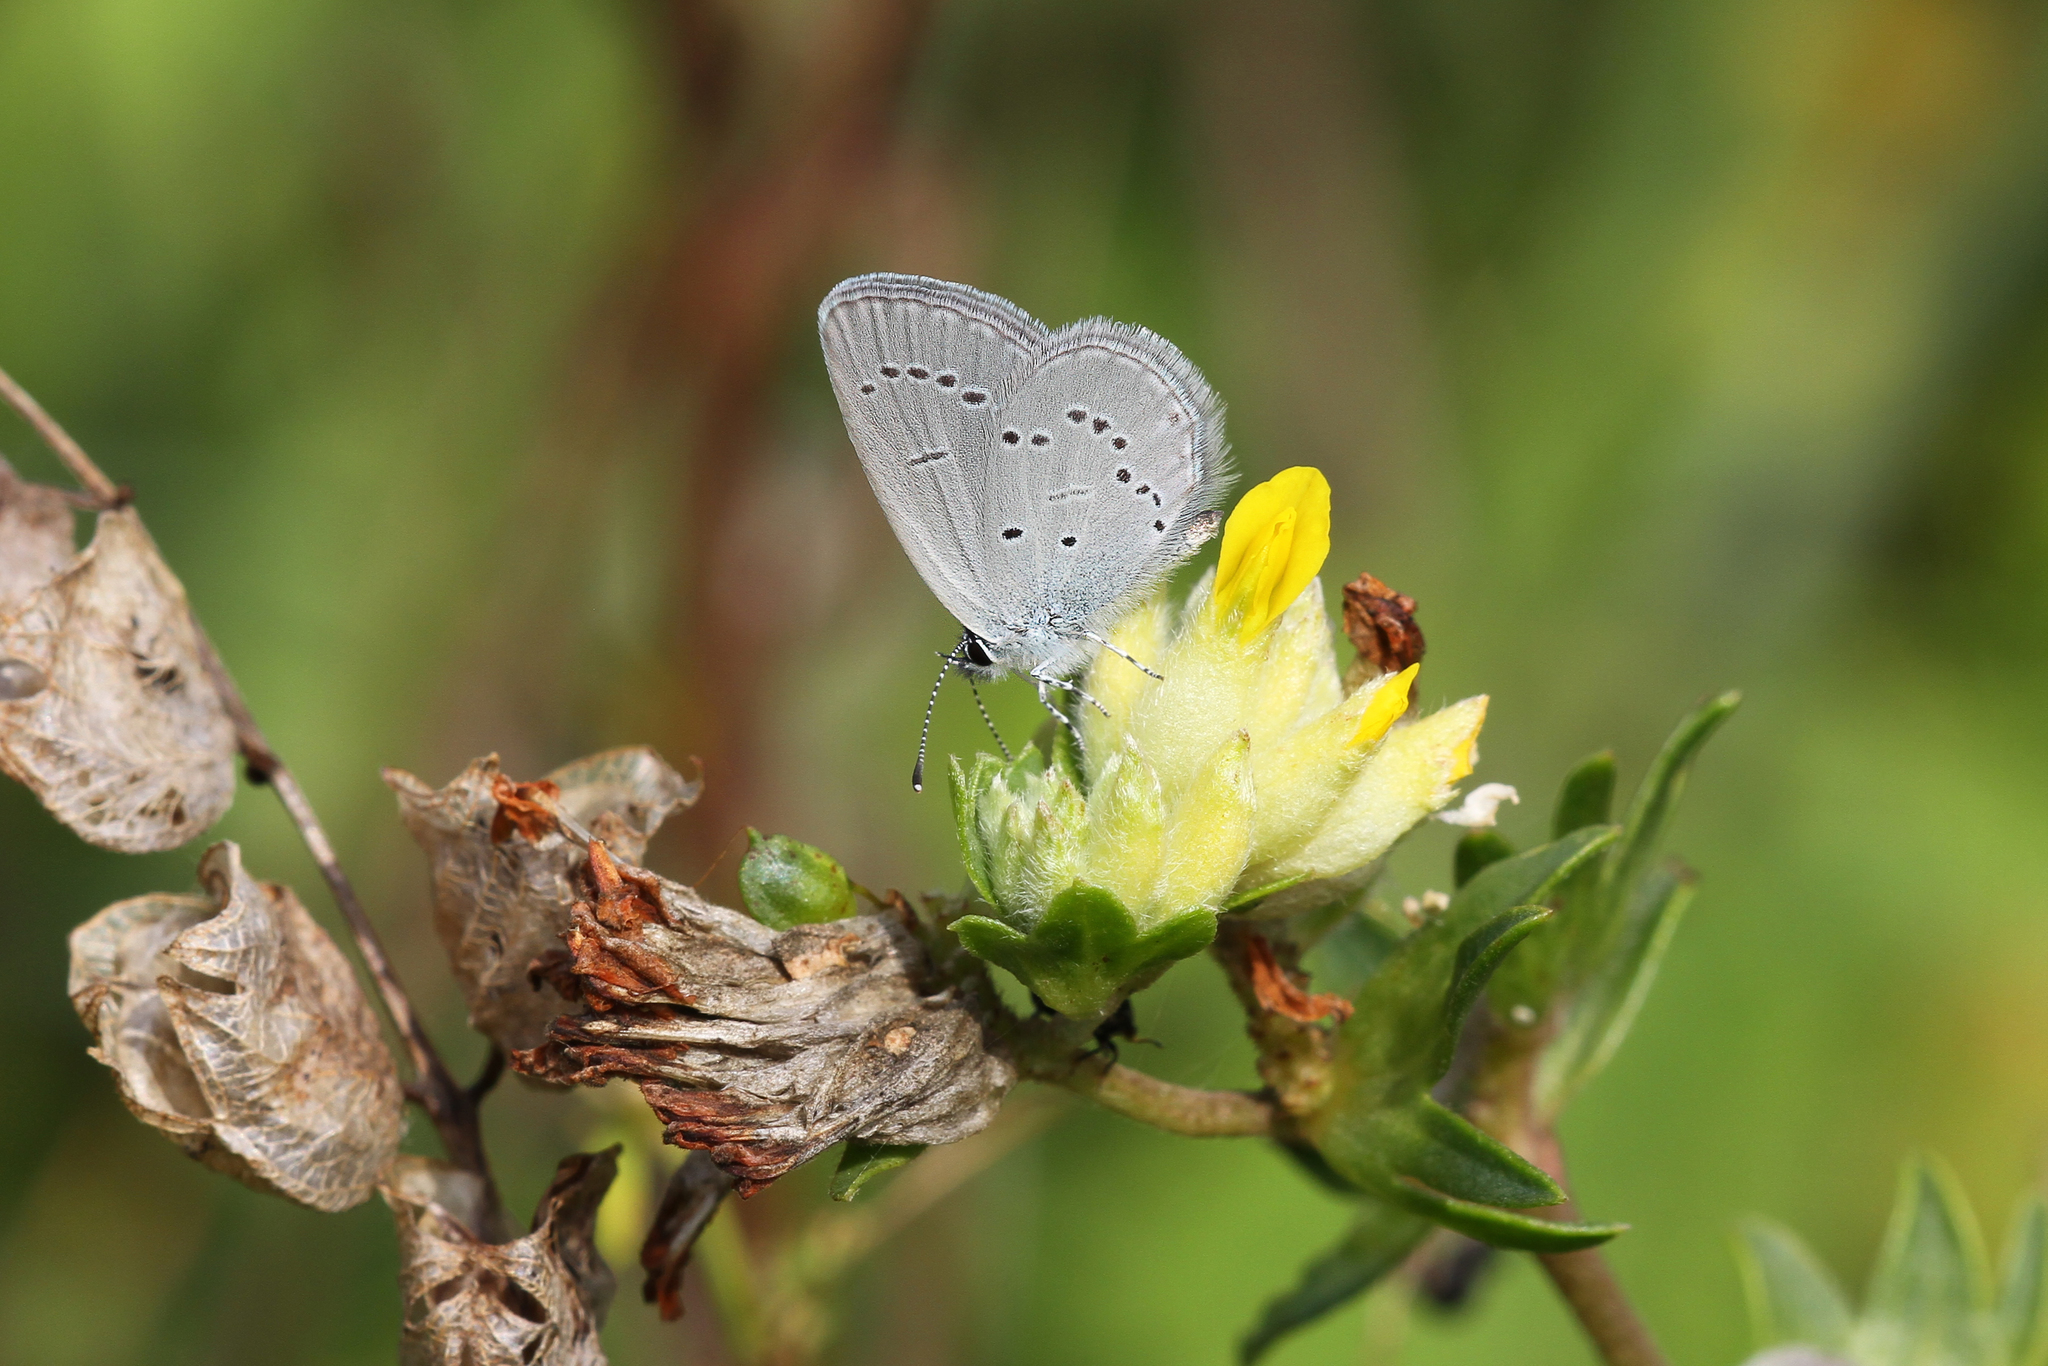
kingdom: Animalia
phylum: Arthropoda
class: Insecta
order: Lepidoptera
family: Lycaenidae
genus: Cupido
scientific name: Cupido minimus
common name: Small blue
